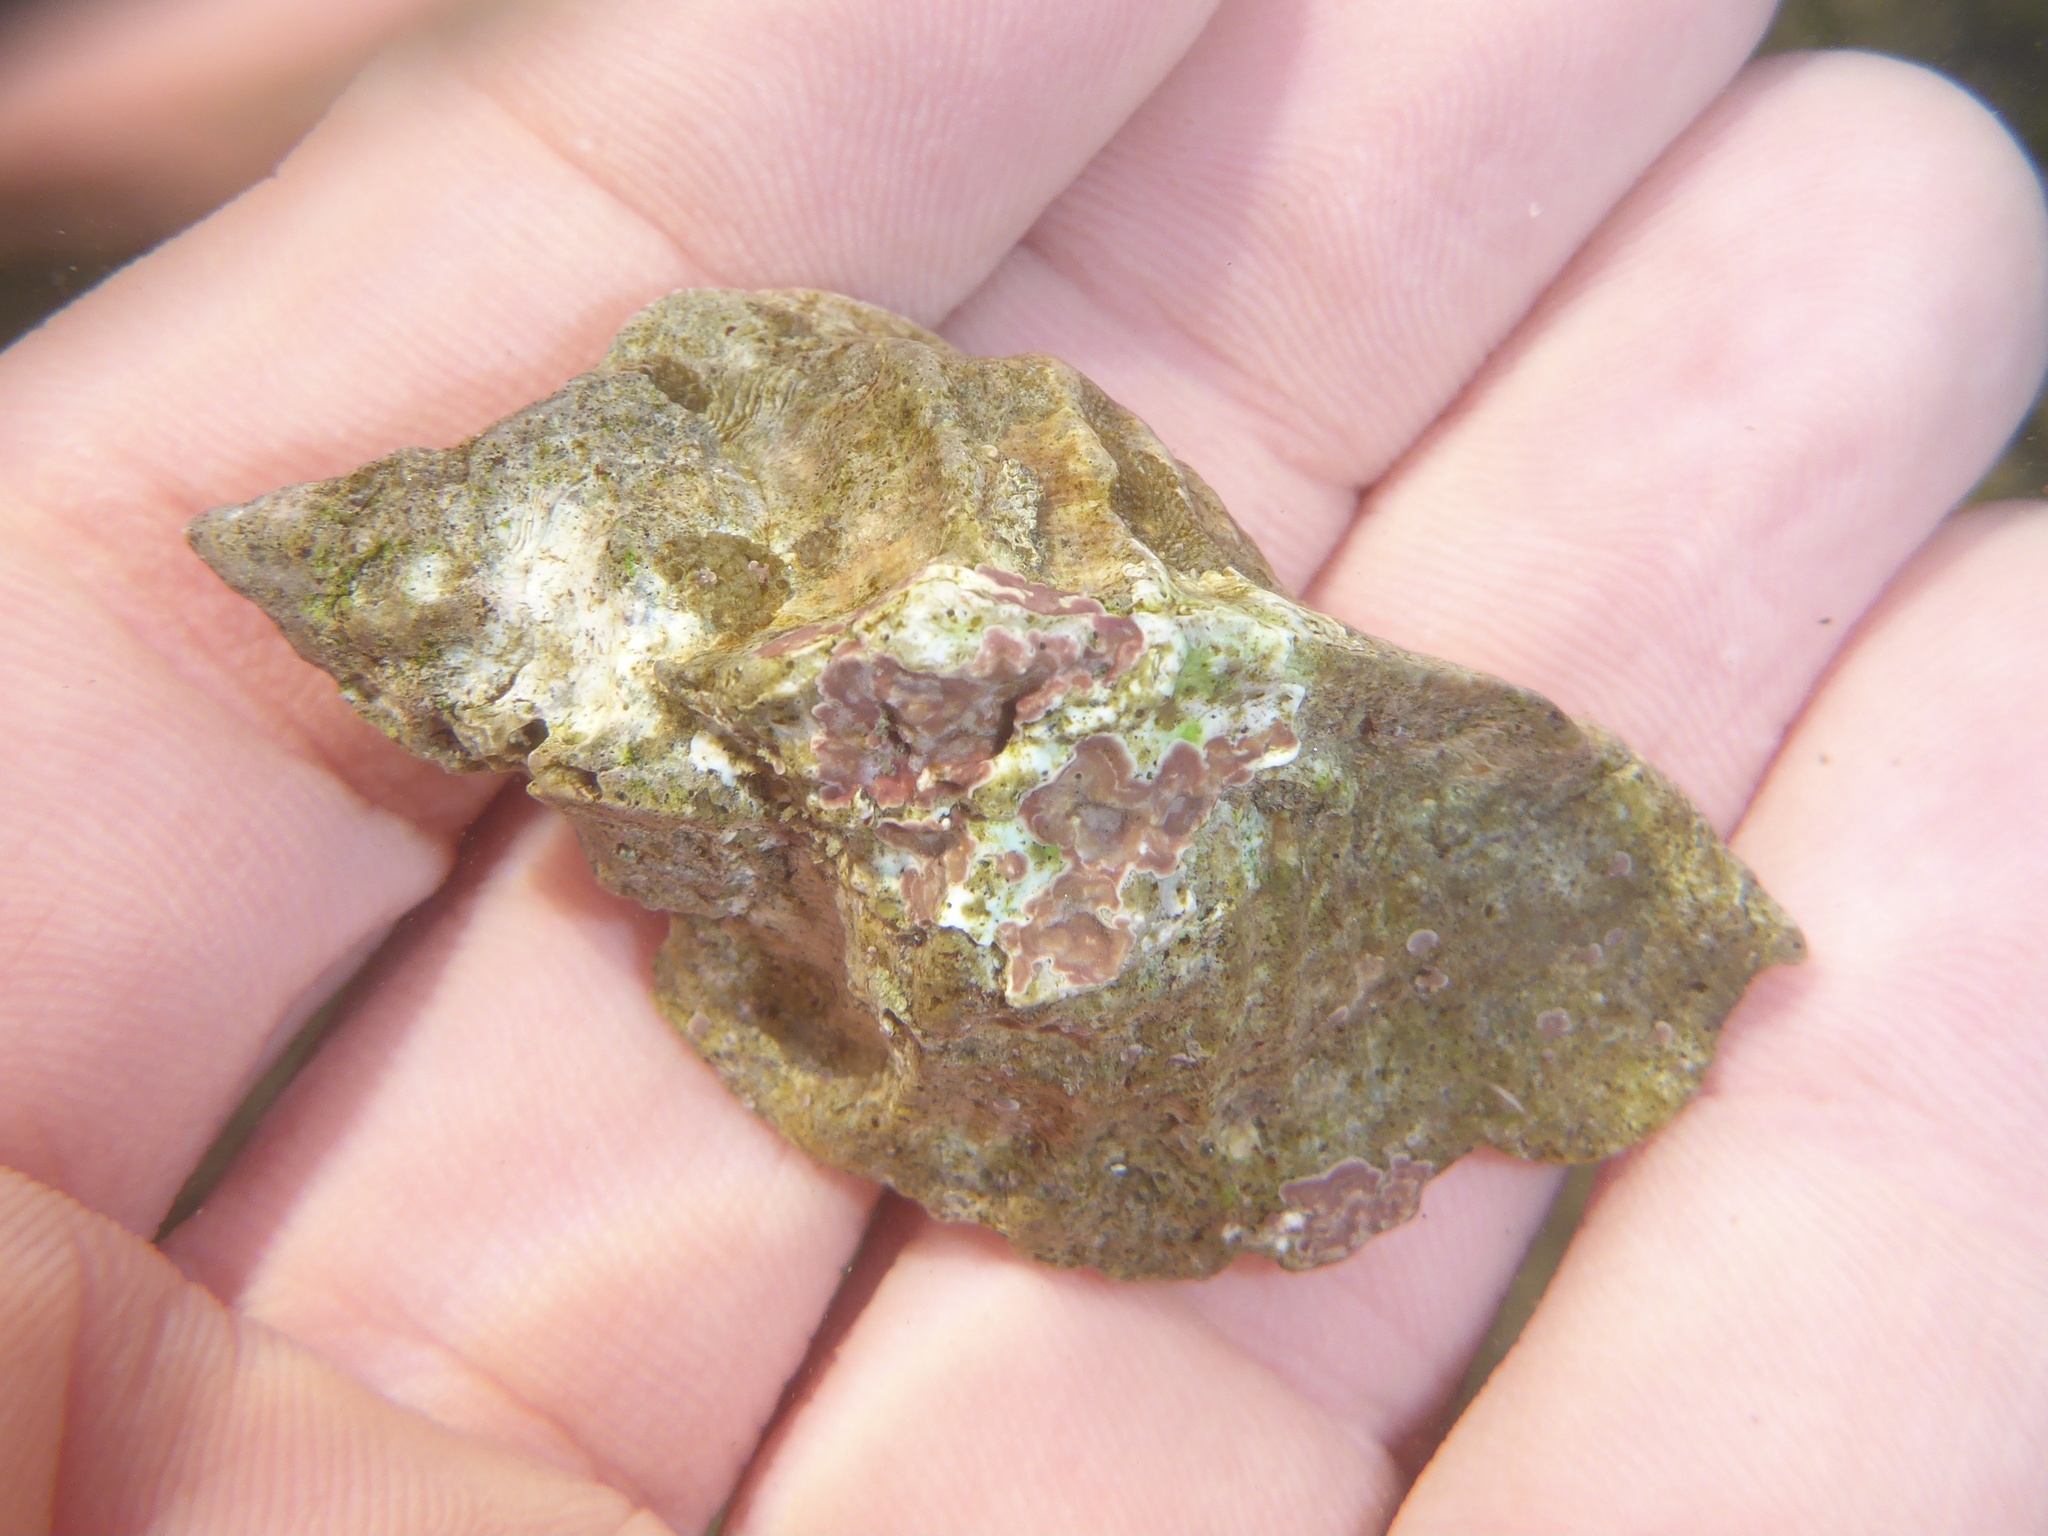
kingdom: Animalia
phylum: Mollusca
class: Gastropoda
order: Neogastropoda
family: Muricidae
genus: Ceratostoma
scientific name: Ceratostoma foliatum
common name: Foliate thorn purpura
